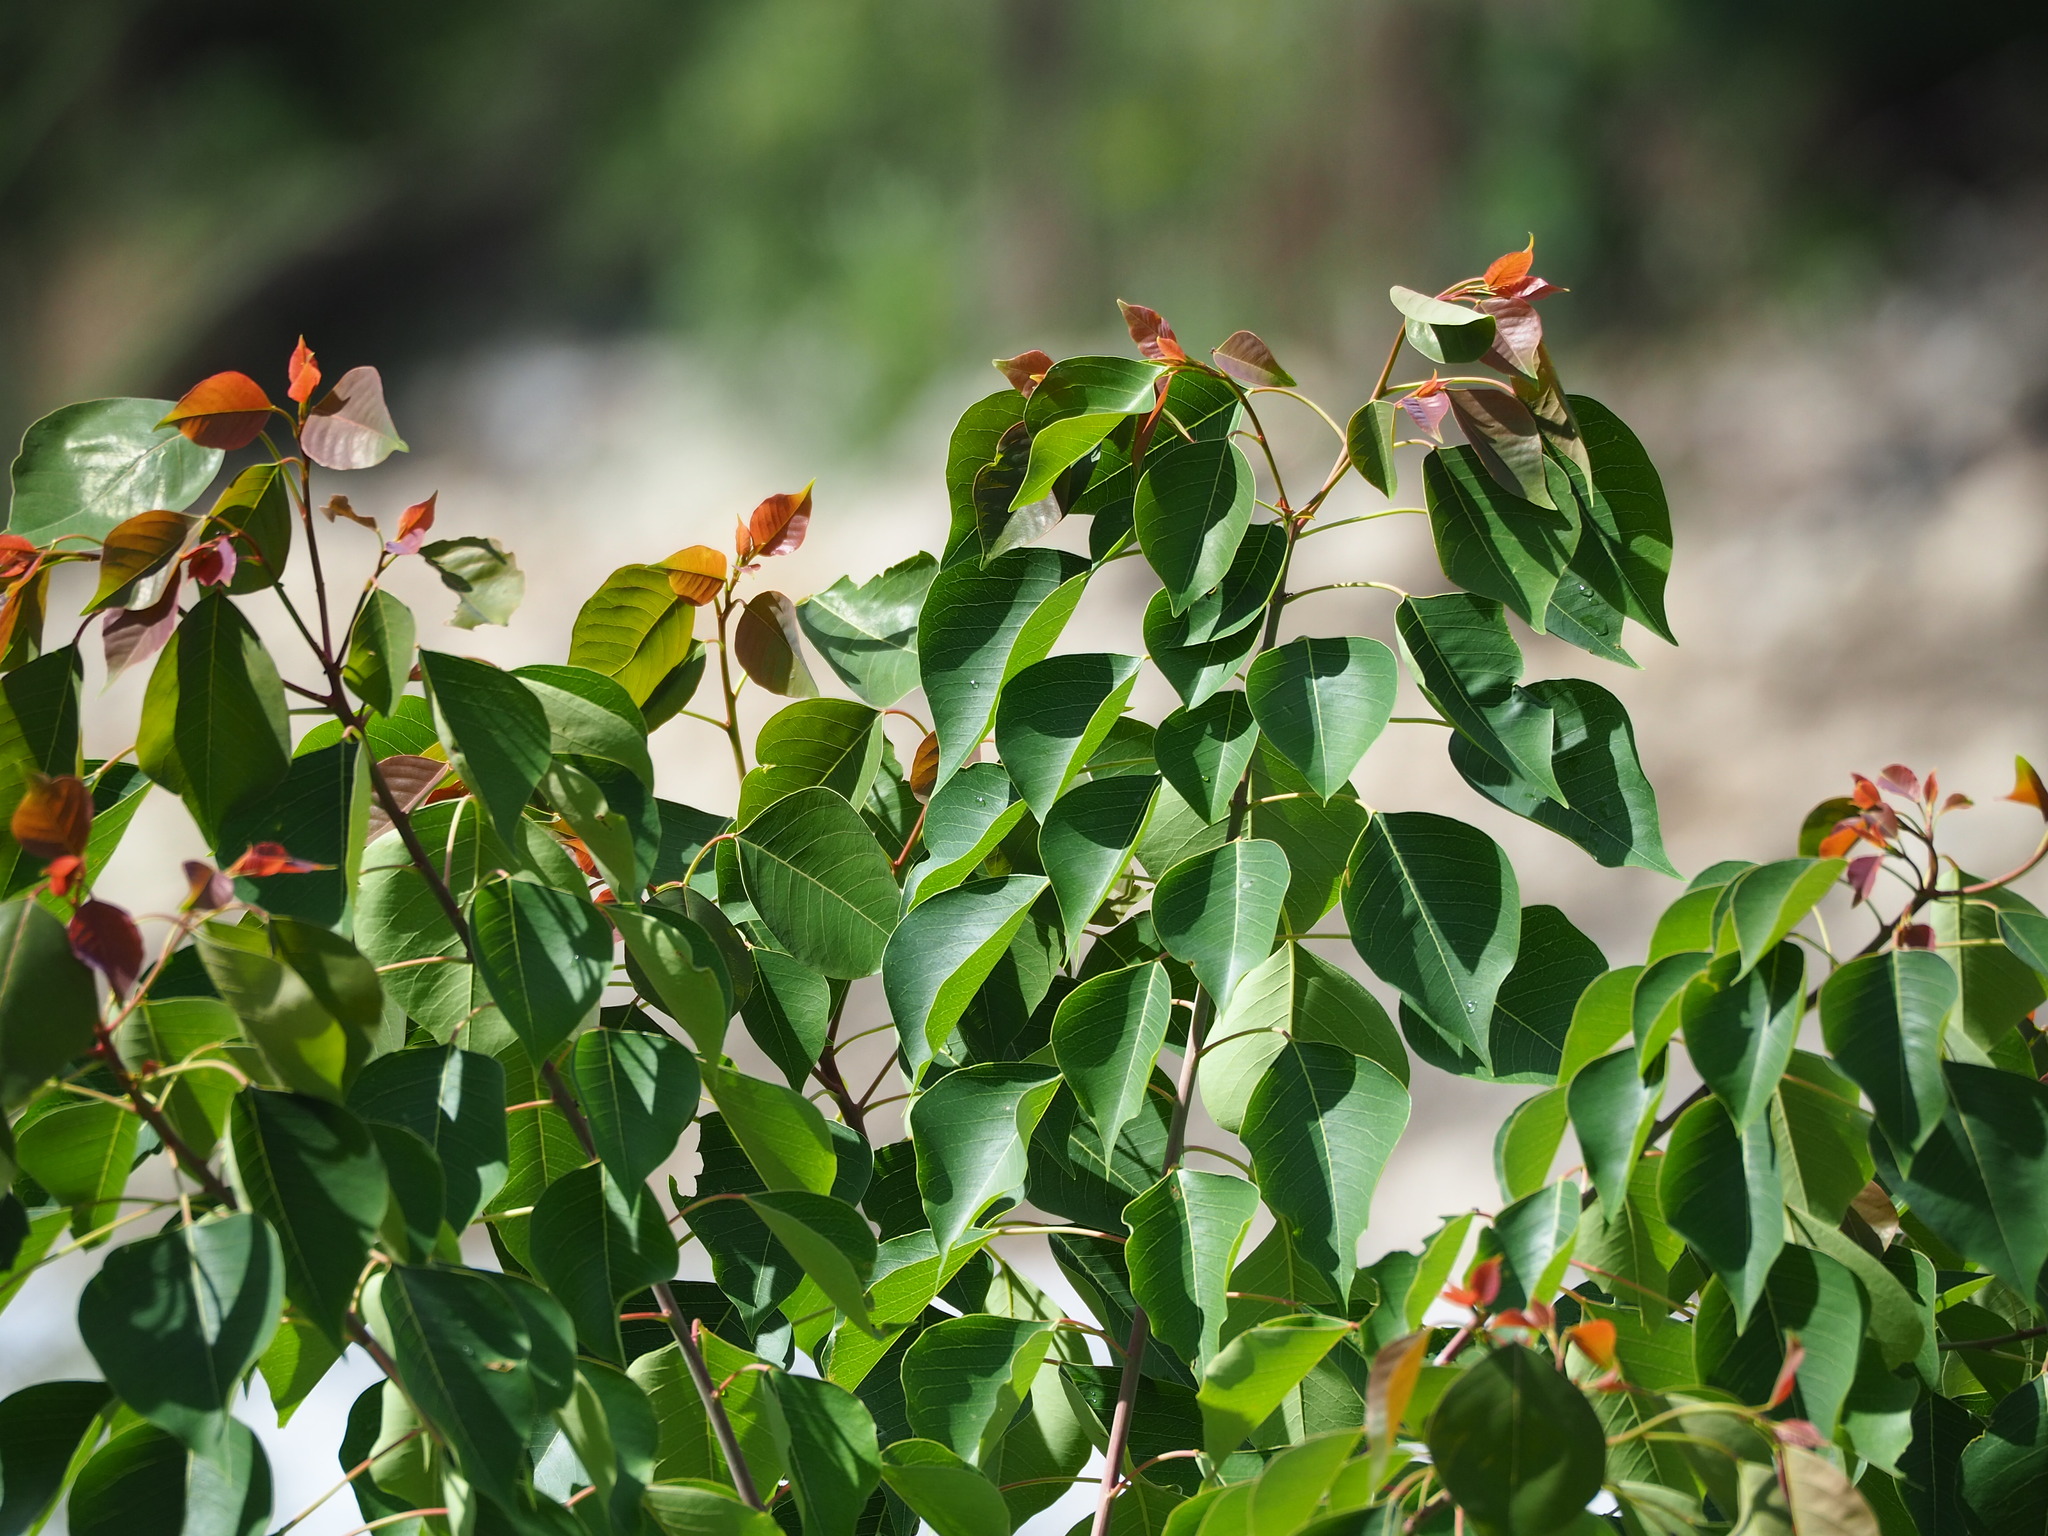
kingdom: Plantae
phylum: Tracheophyta
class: Magnoliopsida
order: Malpighiales
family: Euphorbiaceae
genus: Triadica
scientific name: Triadica sebifera
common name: Chinese tallow
